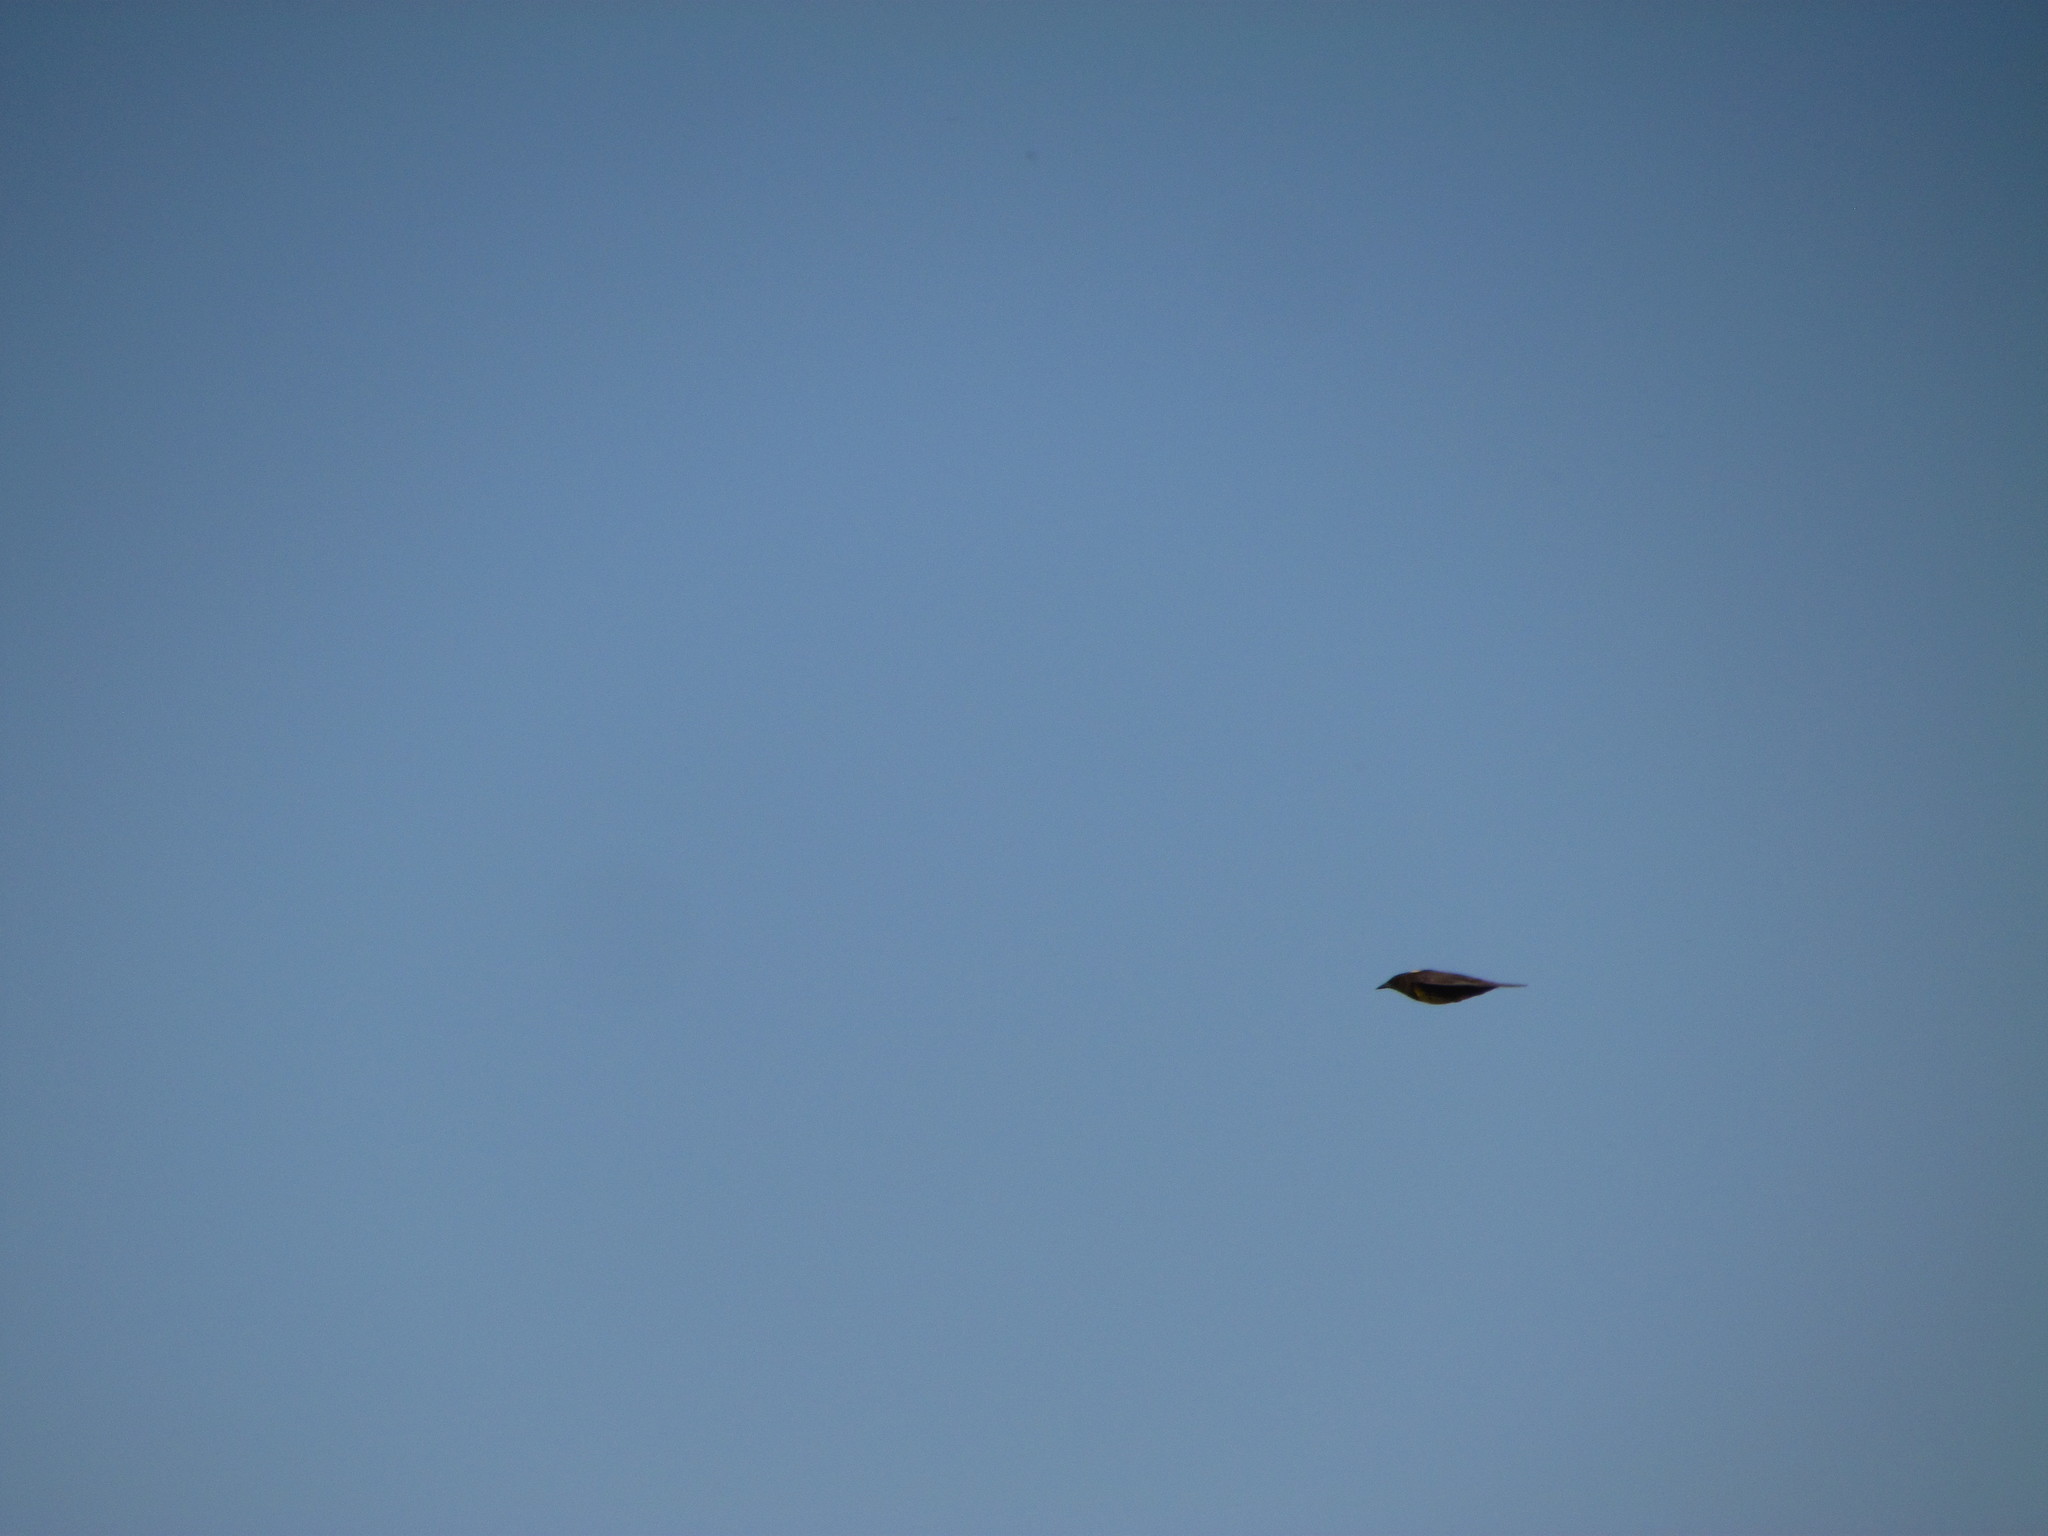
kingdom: Animalia
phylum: Chordata
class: Aves
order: Passeriformes
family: Icteridae
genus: Pseudoleistes
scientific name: Pseudoleistes virescens
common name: Brown-and-yellow marshbird
